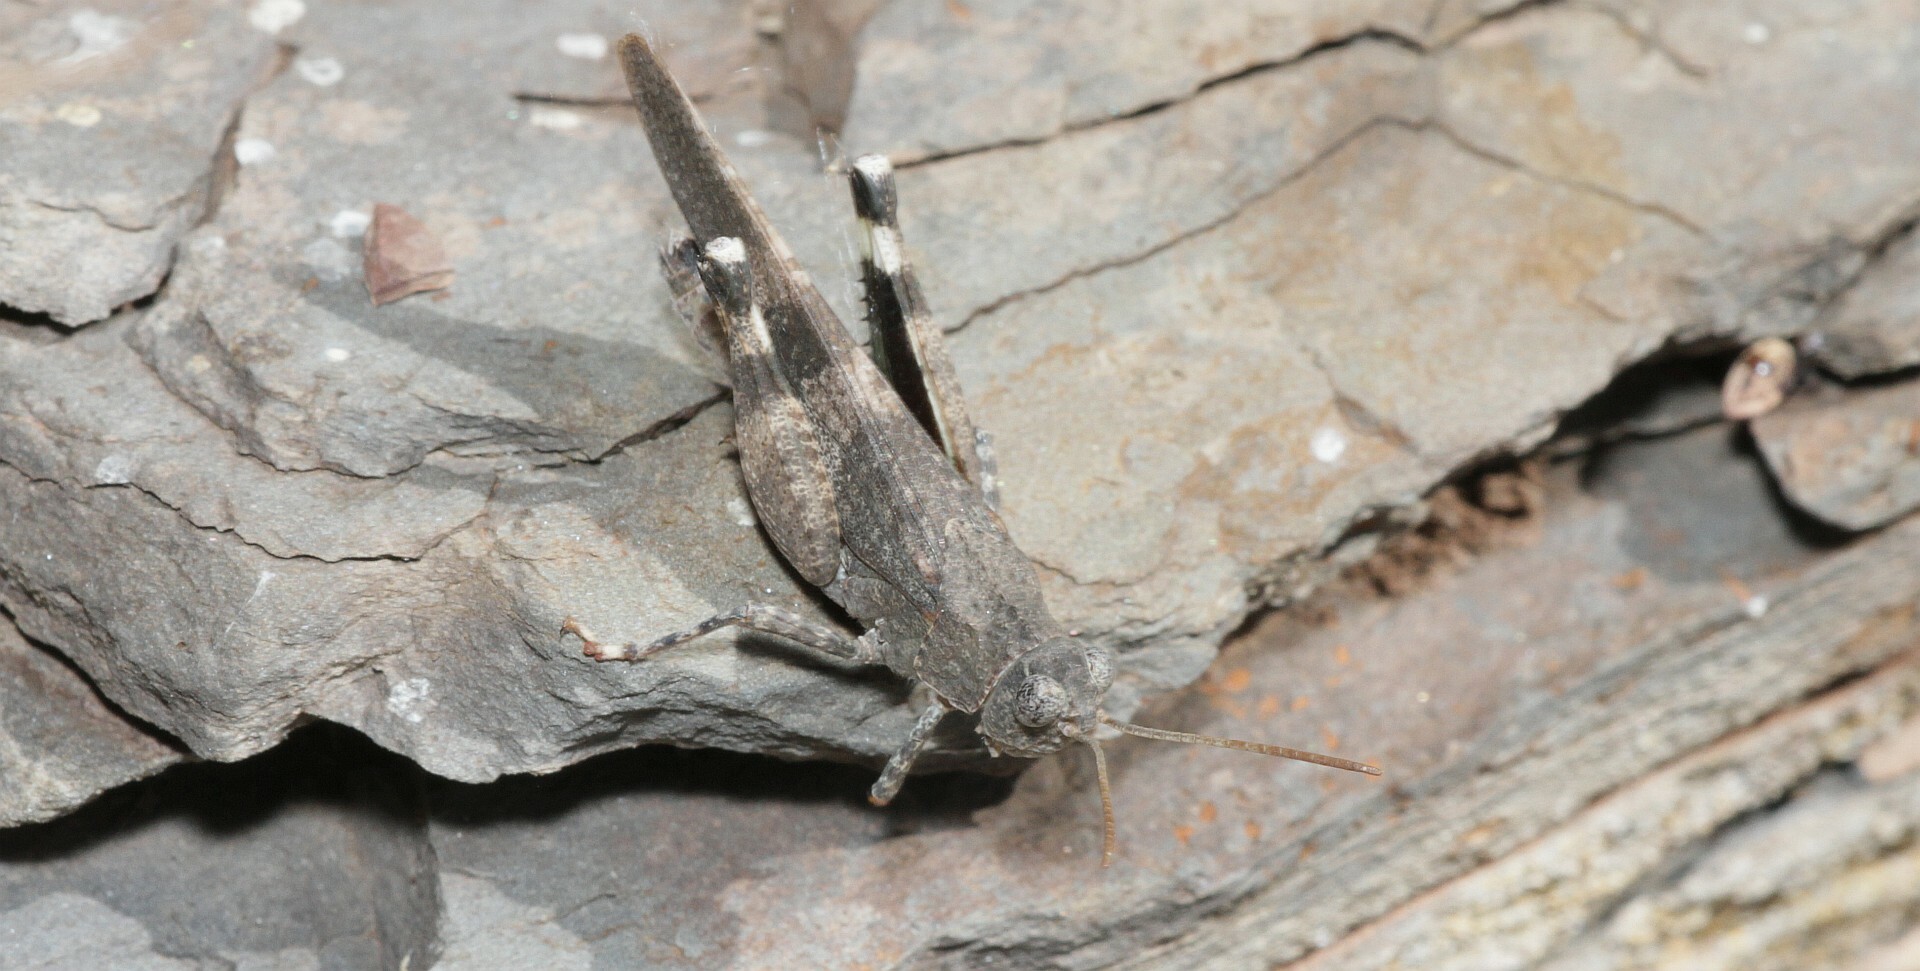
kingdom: Animalia
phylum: Arthropoda
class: Insecta
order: Orthoptera
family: Acrididae
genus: Oedipoda
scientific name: Oedipoda germanica
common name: Red band-winged grasshopper
